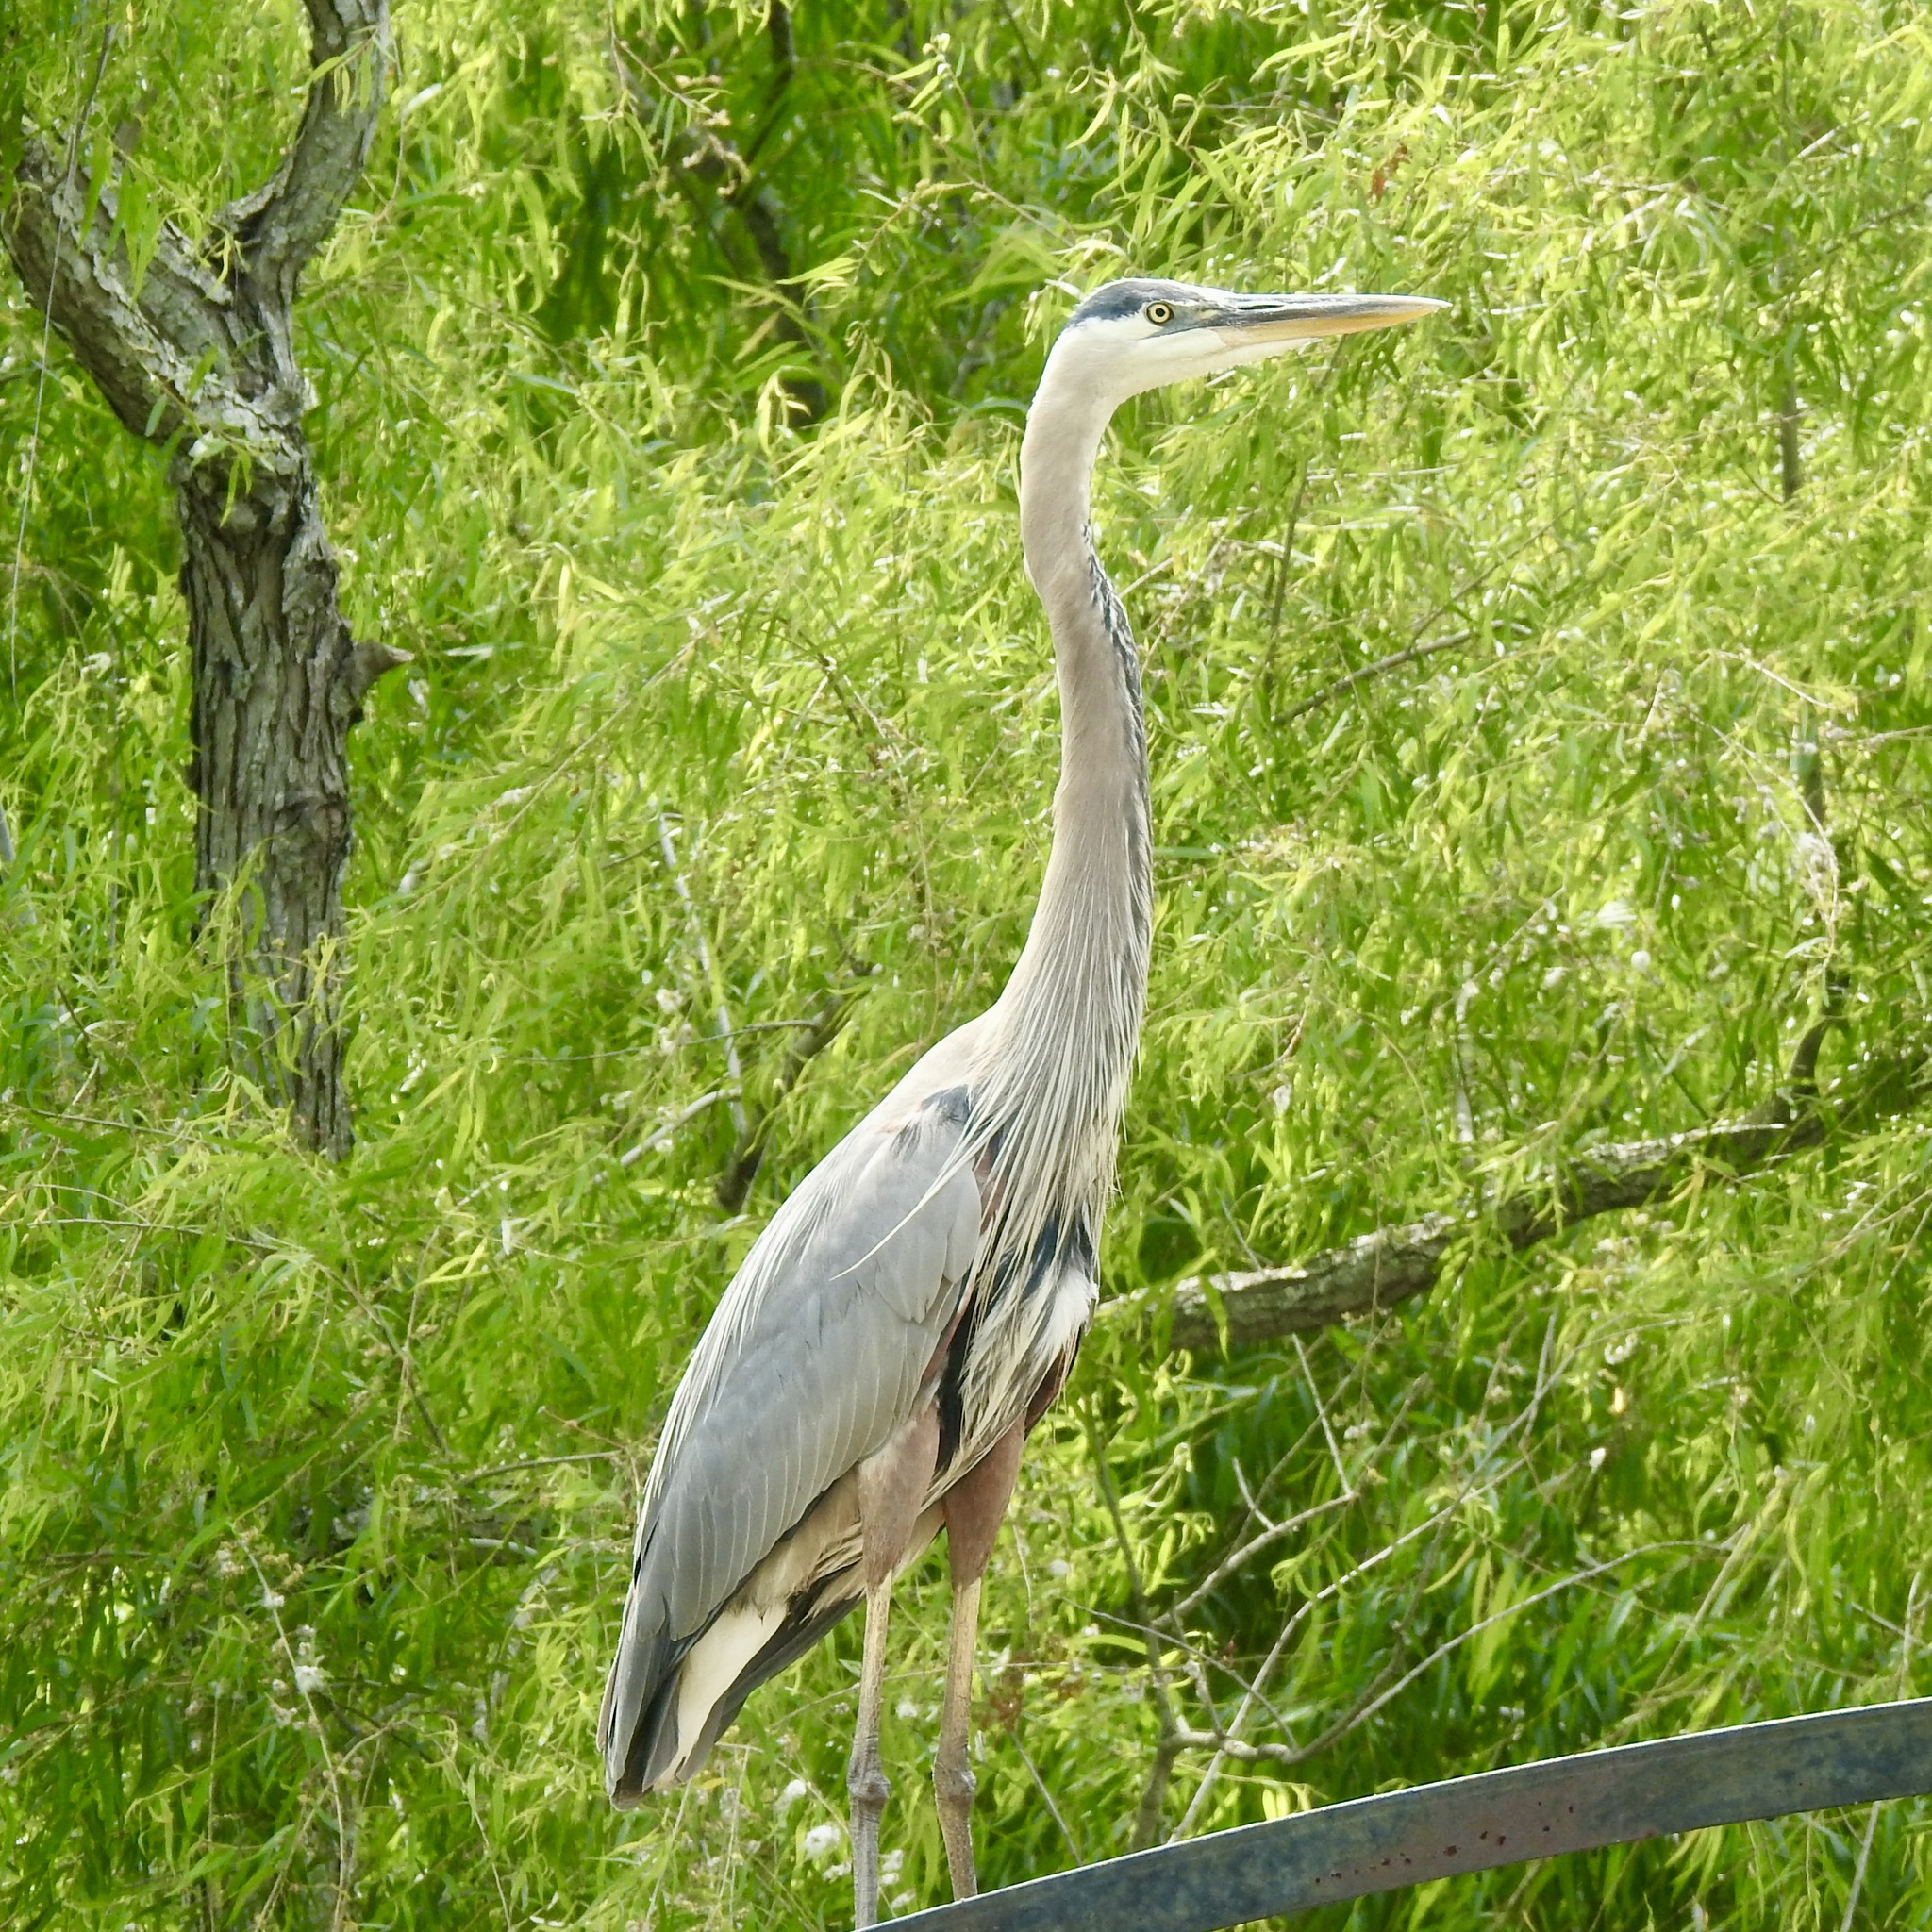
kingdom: Animalia
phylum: Chordata
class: Aves
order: Pelecaniformes
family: Ardeidae
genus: Ardea
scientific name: Ardea herodias
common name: Great blue heron
